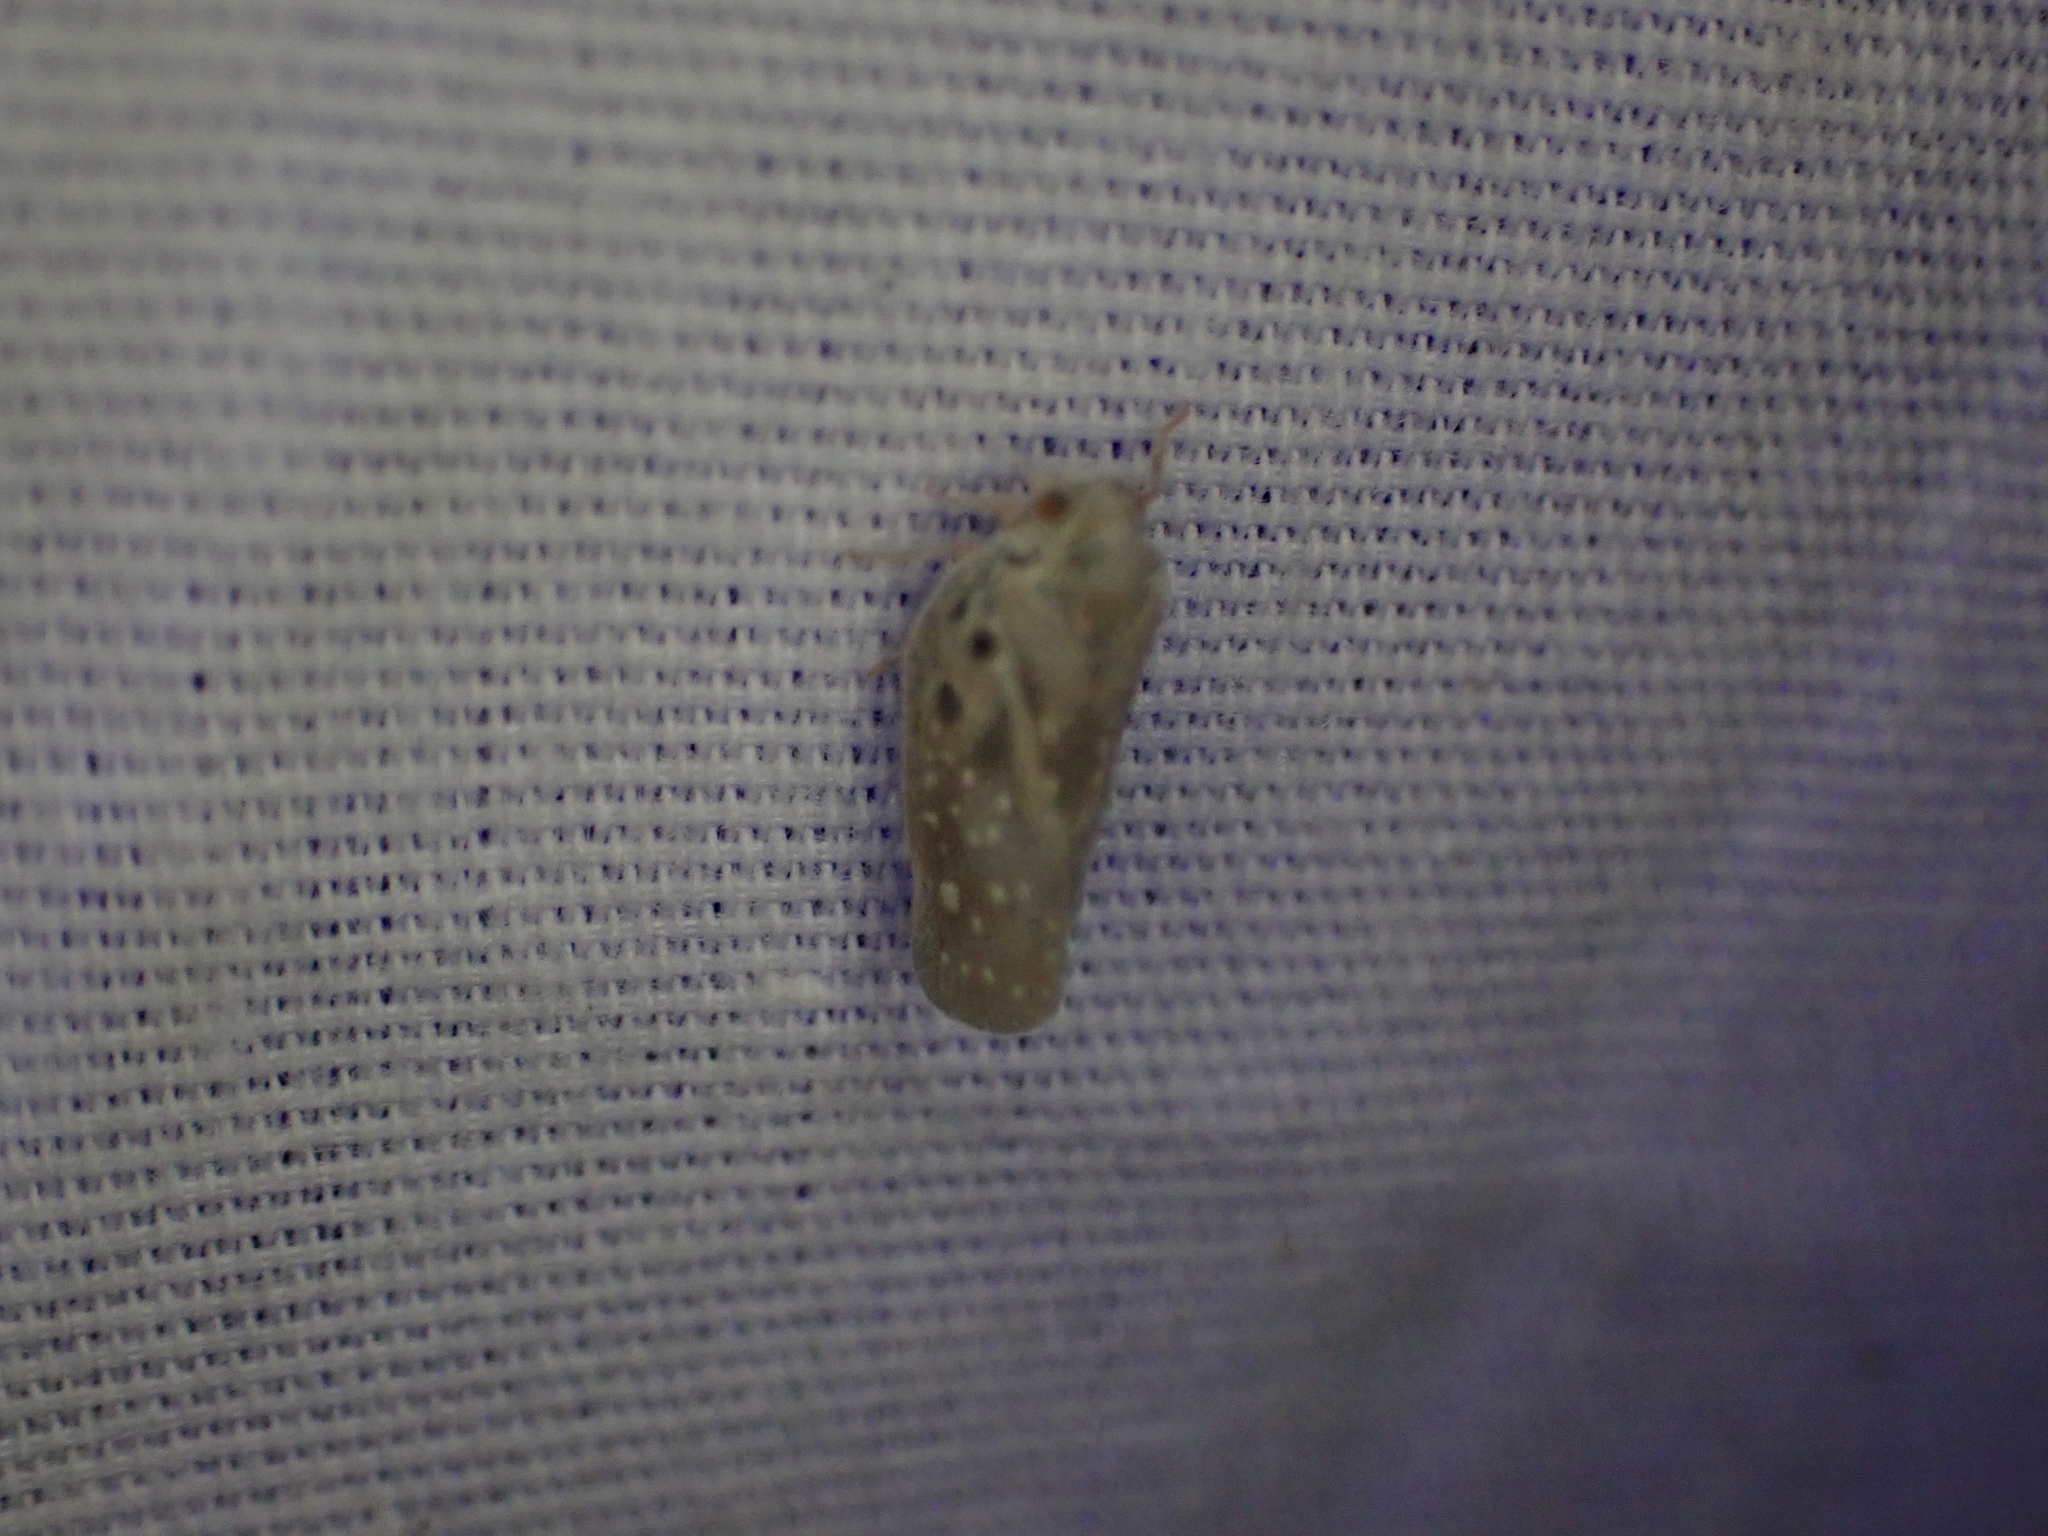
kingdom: Animalia
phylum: Arthropoda
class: Insecta
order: Hemiptera
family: Flatidae
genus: Metcalfa
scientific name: Metcalfa pruinosa
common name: Citrus flatid planthopper
